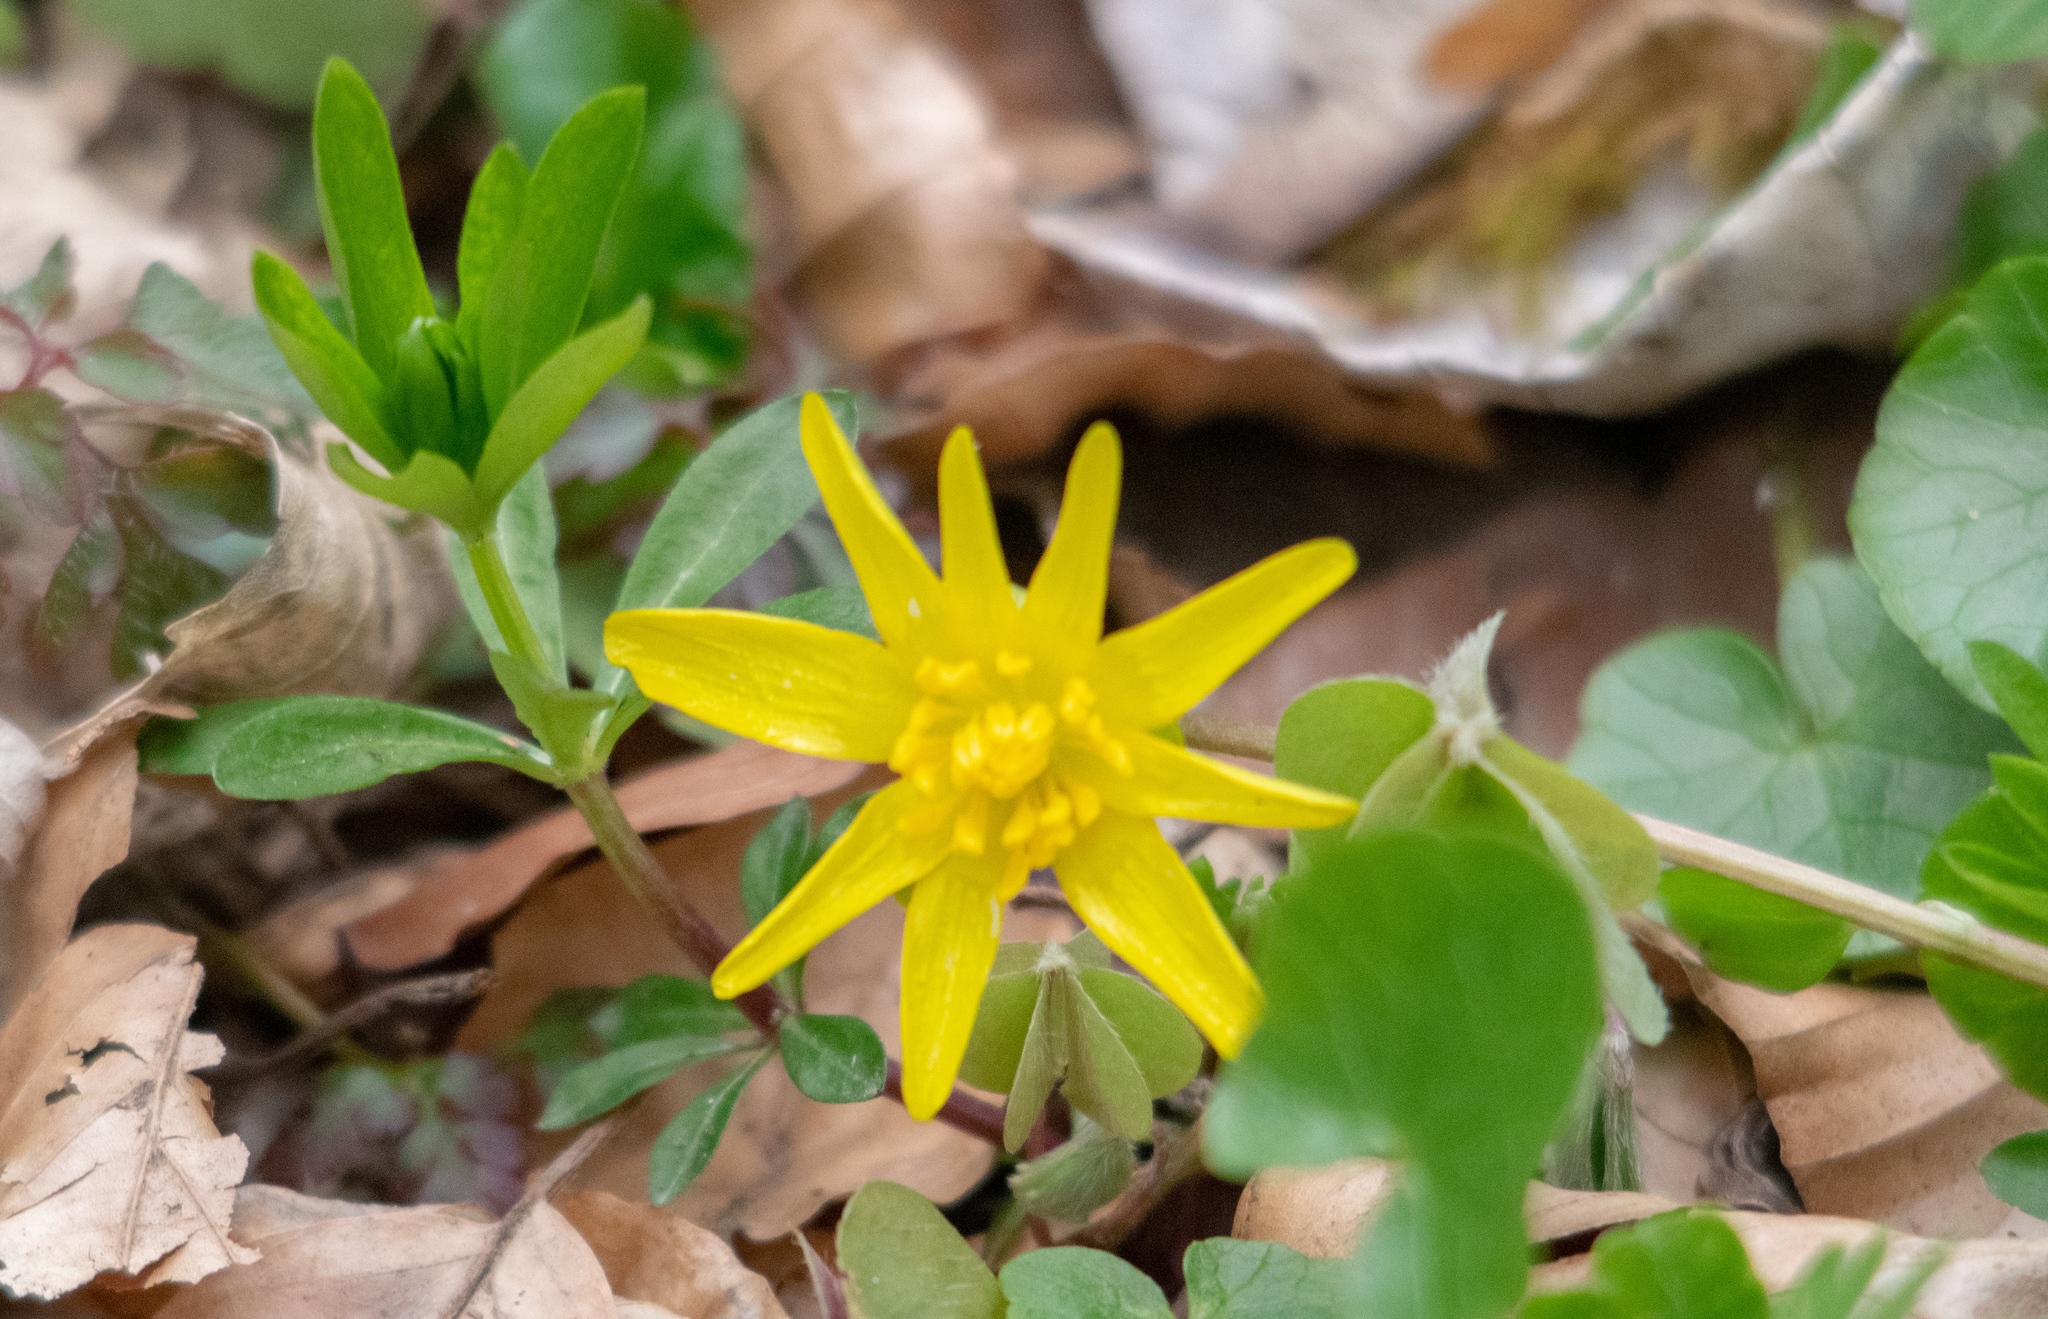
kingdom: Plantae
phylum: Tracheophyta
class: Magnoliopsida
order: Ranunculales
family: Ranunculaceae
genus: Ficaria
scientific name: Ficaria verna
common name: Lesser celandine
